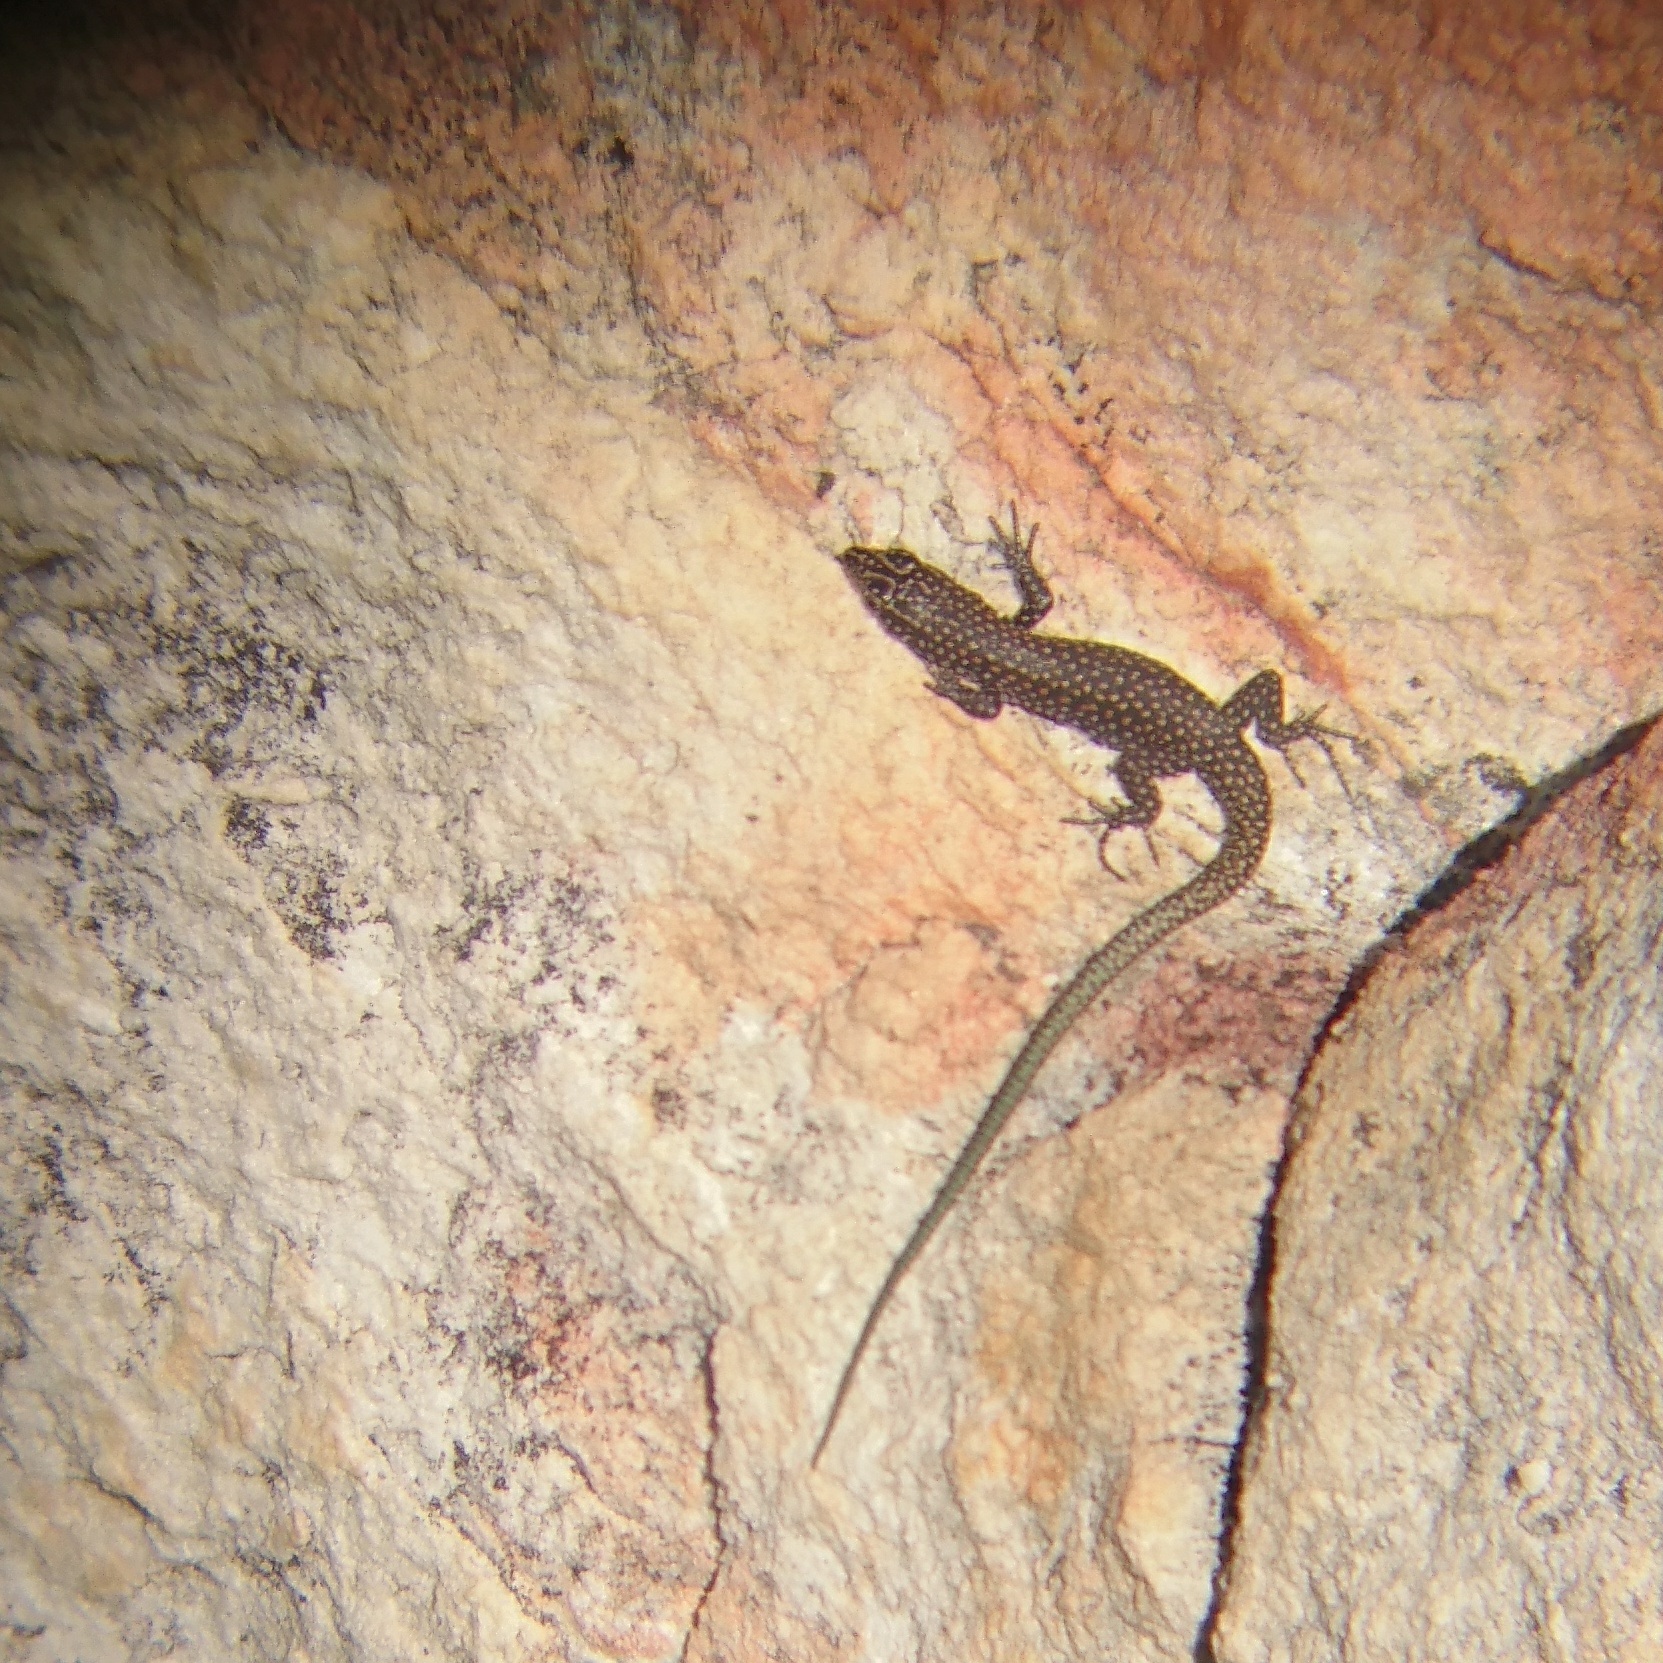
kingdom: Animalia
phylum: Chordata
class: Squamata
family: Lacertidae
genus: Australolacerta
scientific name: Australolacerta australis
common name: Southern rock lizard
